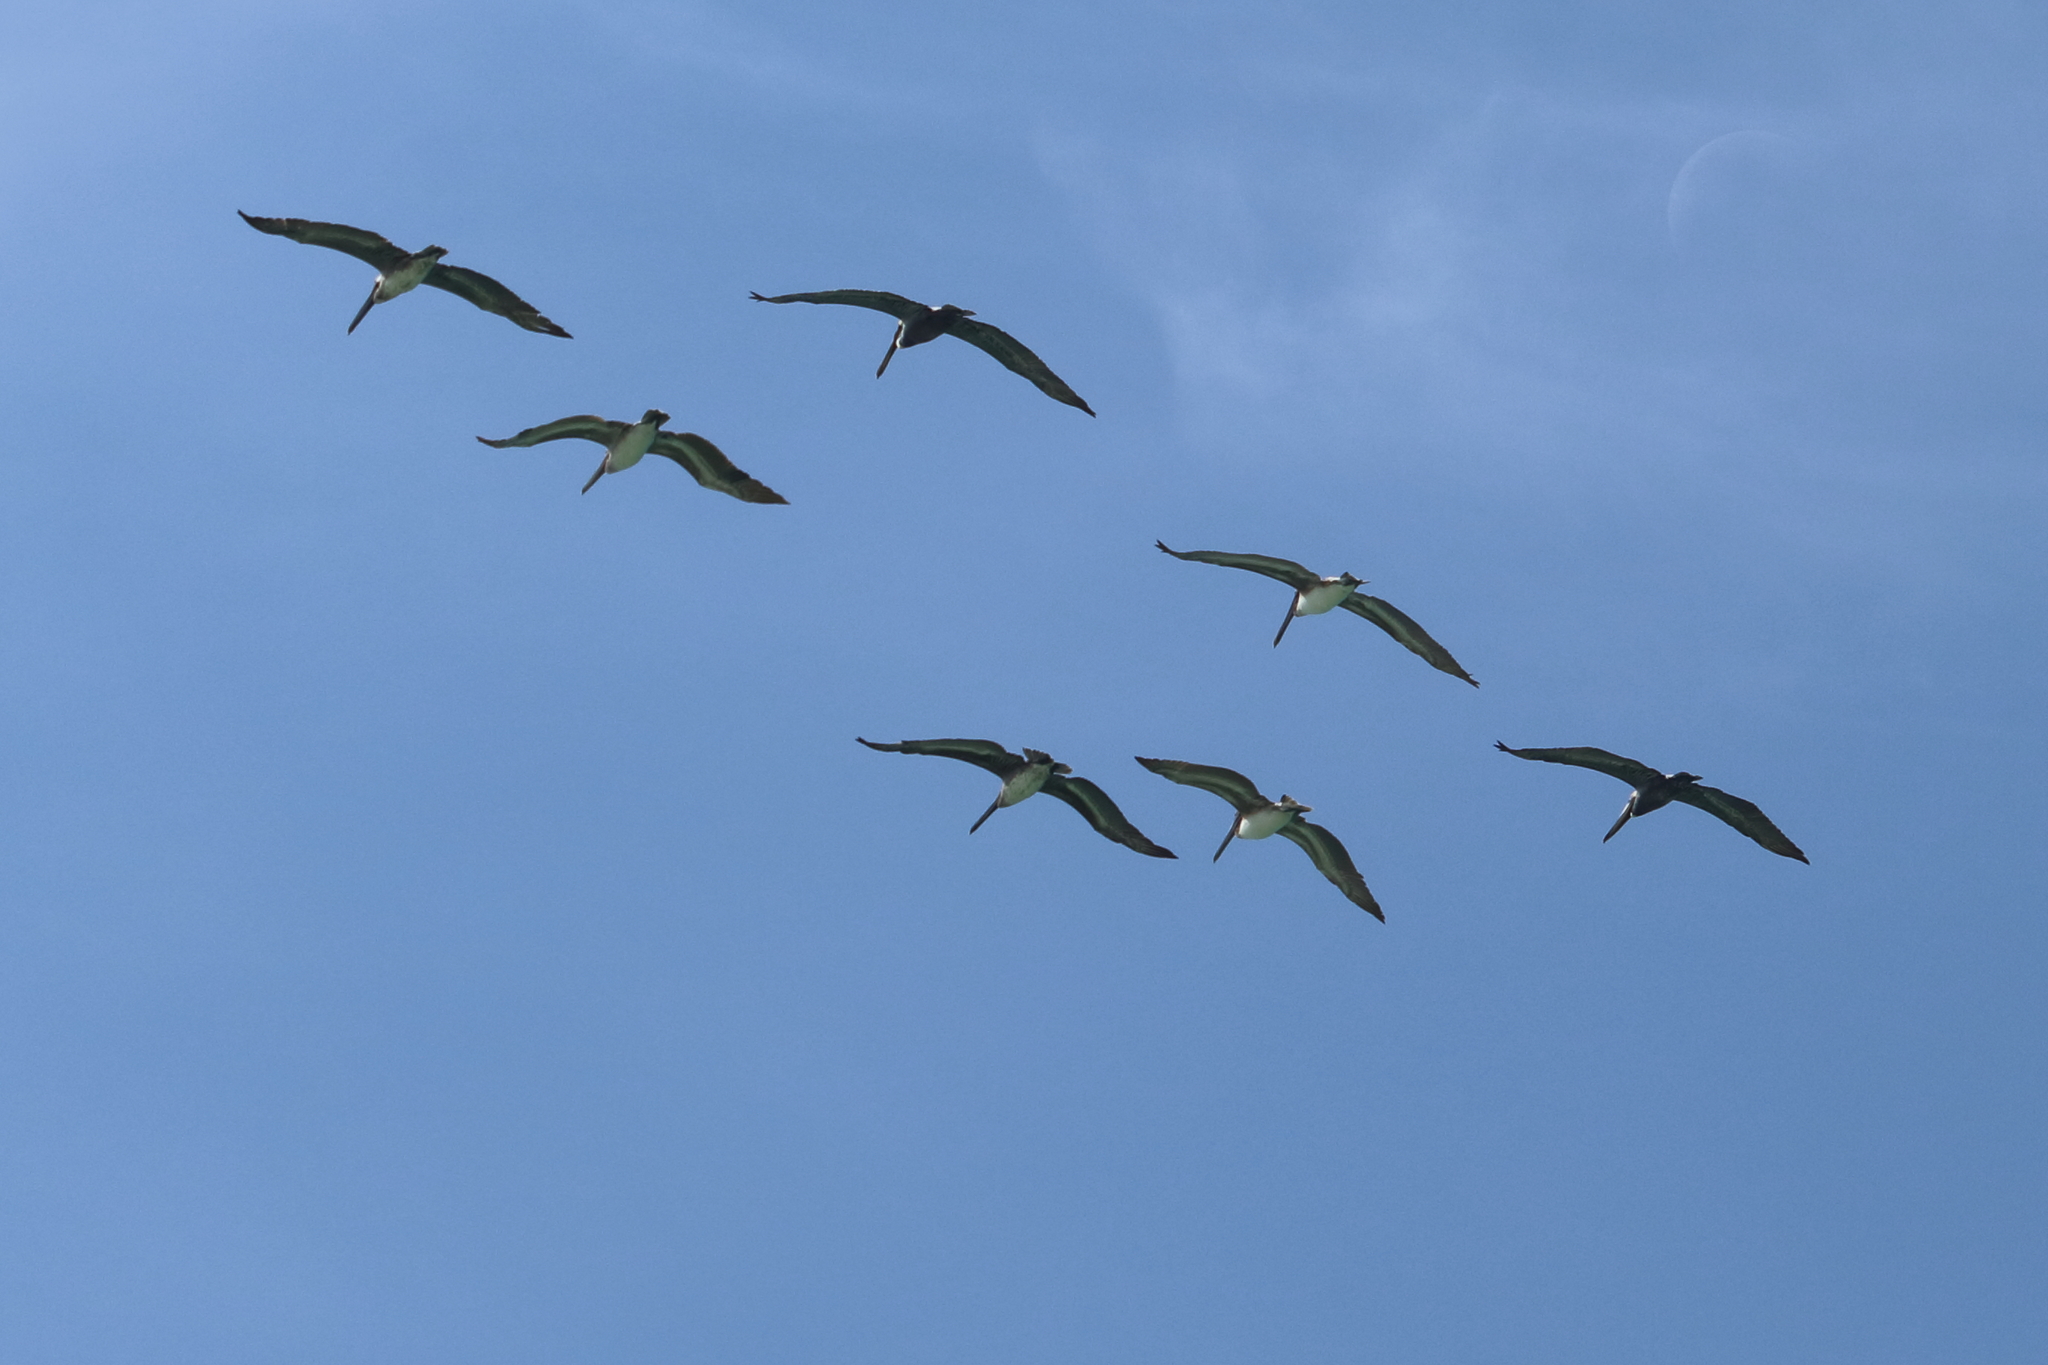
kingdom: Animalia
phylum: Chordata
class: Aves
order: Pelecaniformes
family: Pelecanidae
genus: Pelecanus
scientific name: Pelecanus occidentalis
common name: Brown pelican
